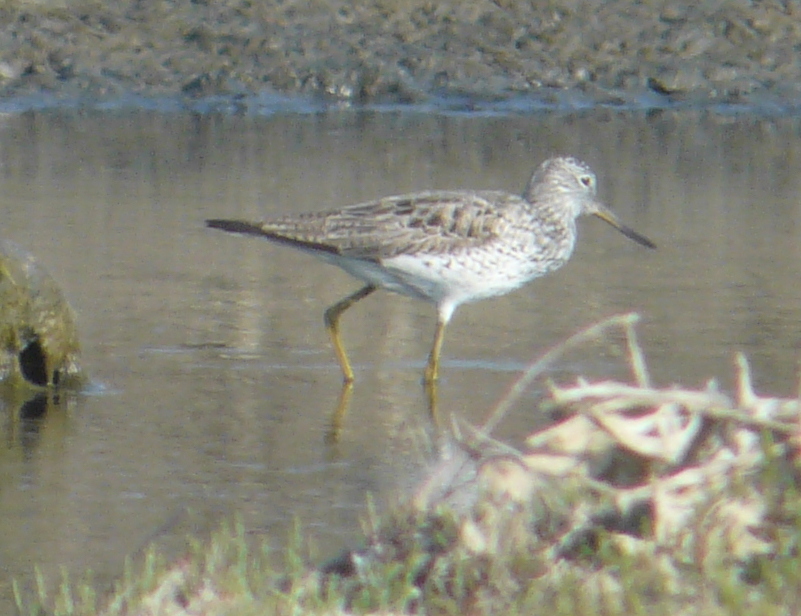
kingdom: Animalia
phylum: Chordata
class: Aves
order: Charadriiformes
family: Scolopacidae
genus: Tringa
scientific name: Tringa nebularia
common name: Common greenshank
